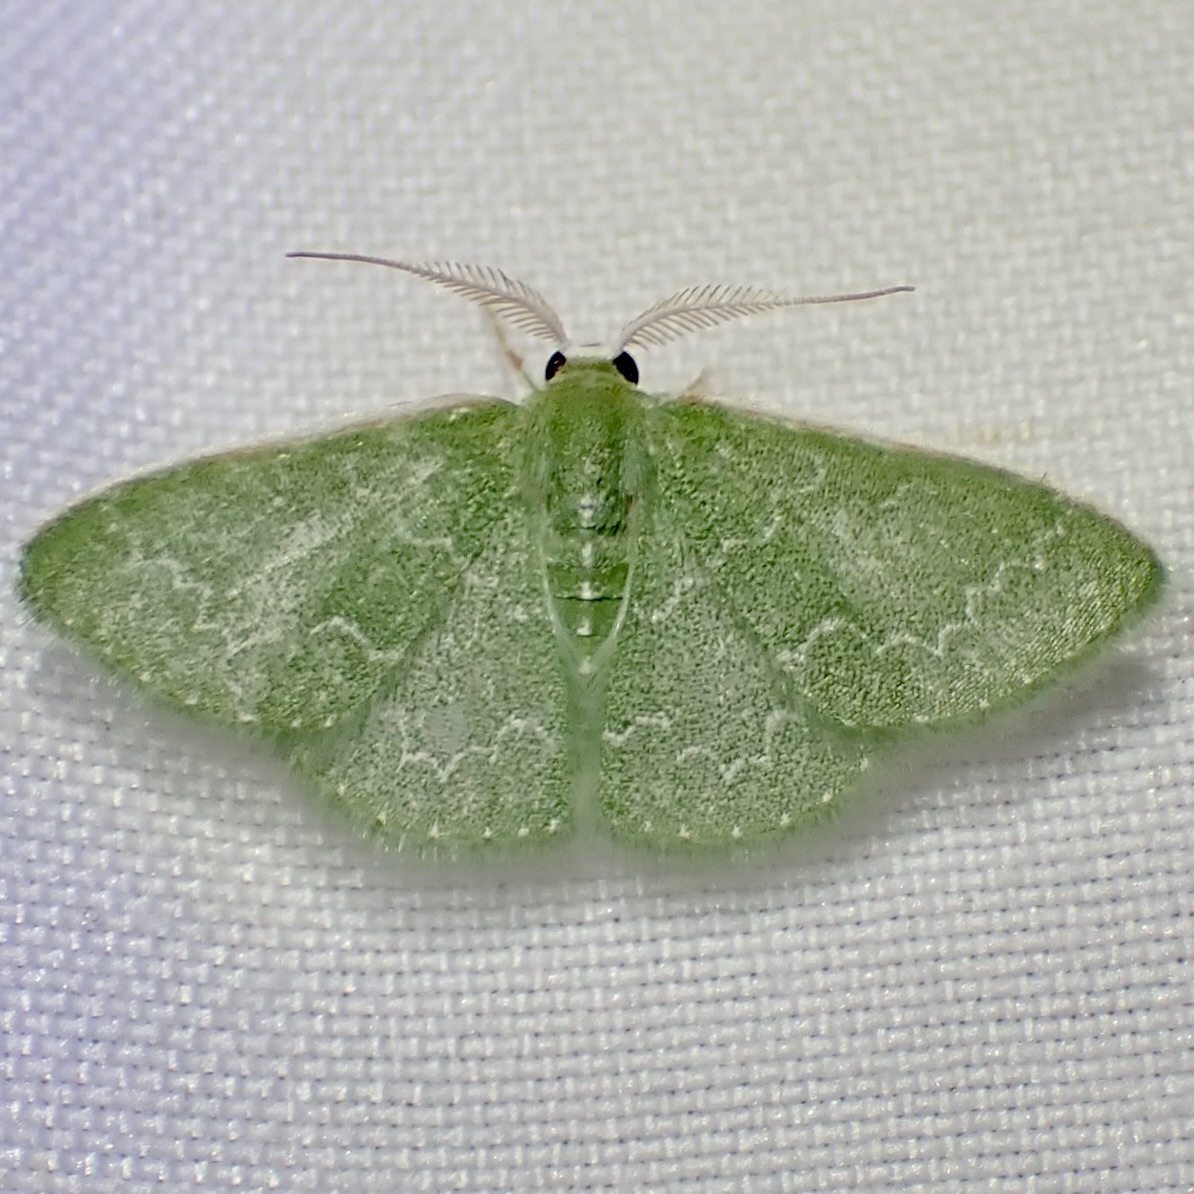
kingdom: Animalia
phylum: Arthropoda
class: Insecta
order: Lepidoptera
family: Geometridae
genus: Synchlora
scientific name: Synchlora frondaria
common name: Southern emerald
